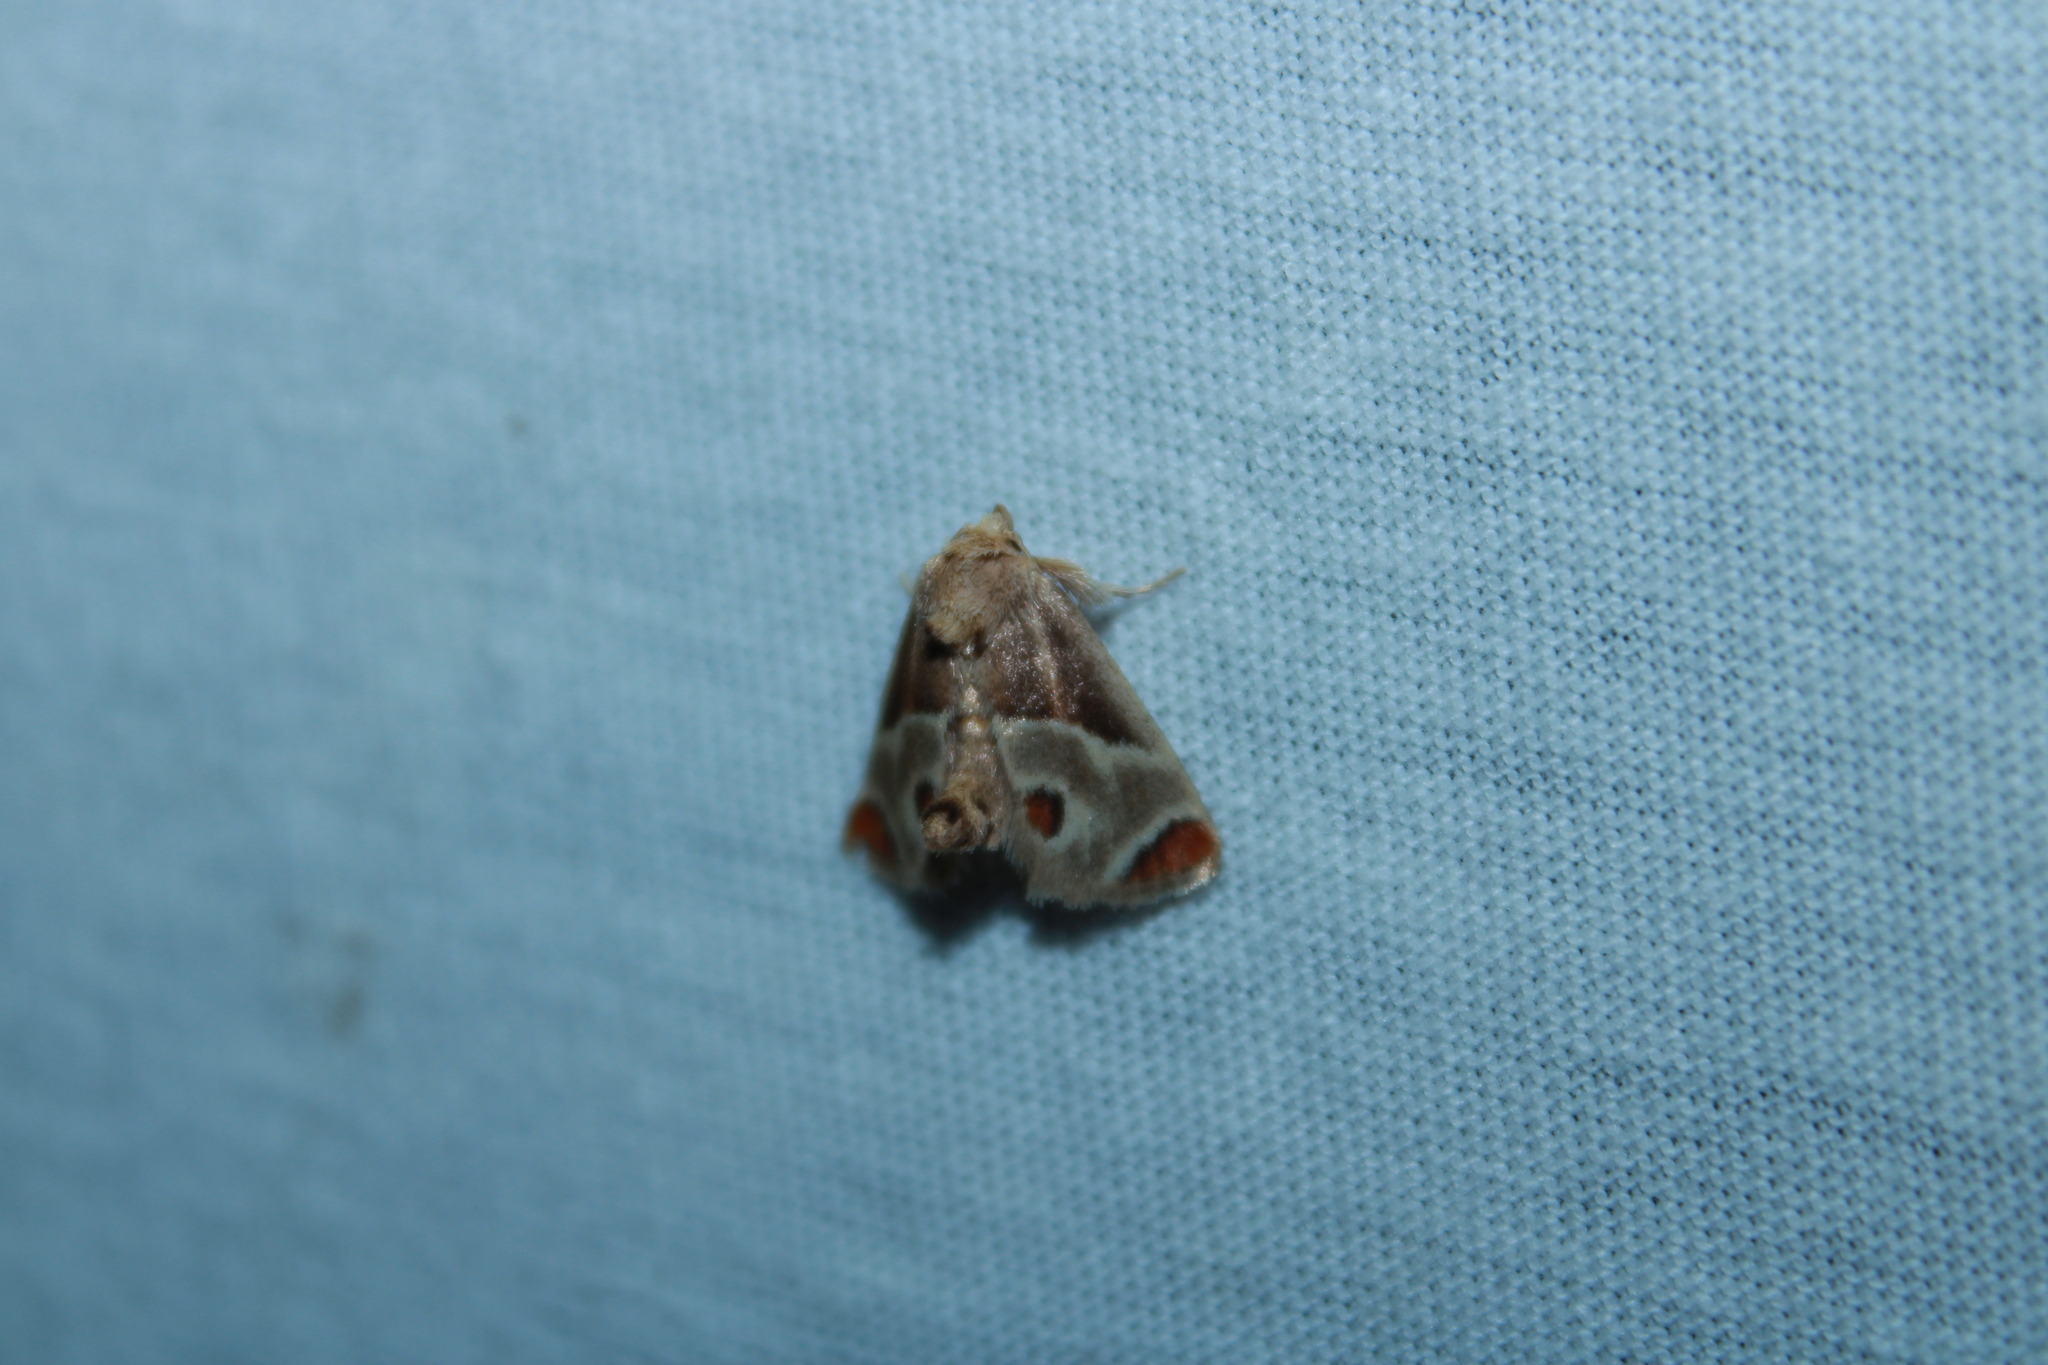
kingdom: Animalia
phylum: Arthropoda
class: Insecta
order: Lepidoptera
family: Limacodidae
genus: Apoda
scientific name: Apoda biguttata
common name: Shagreened slug moth
